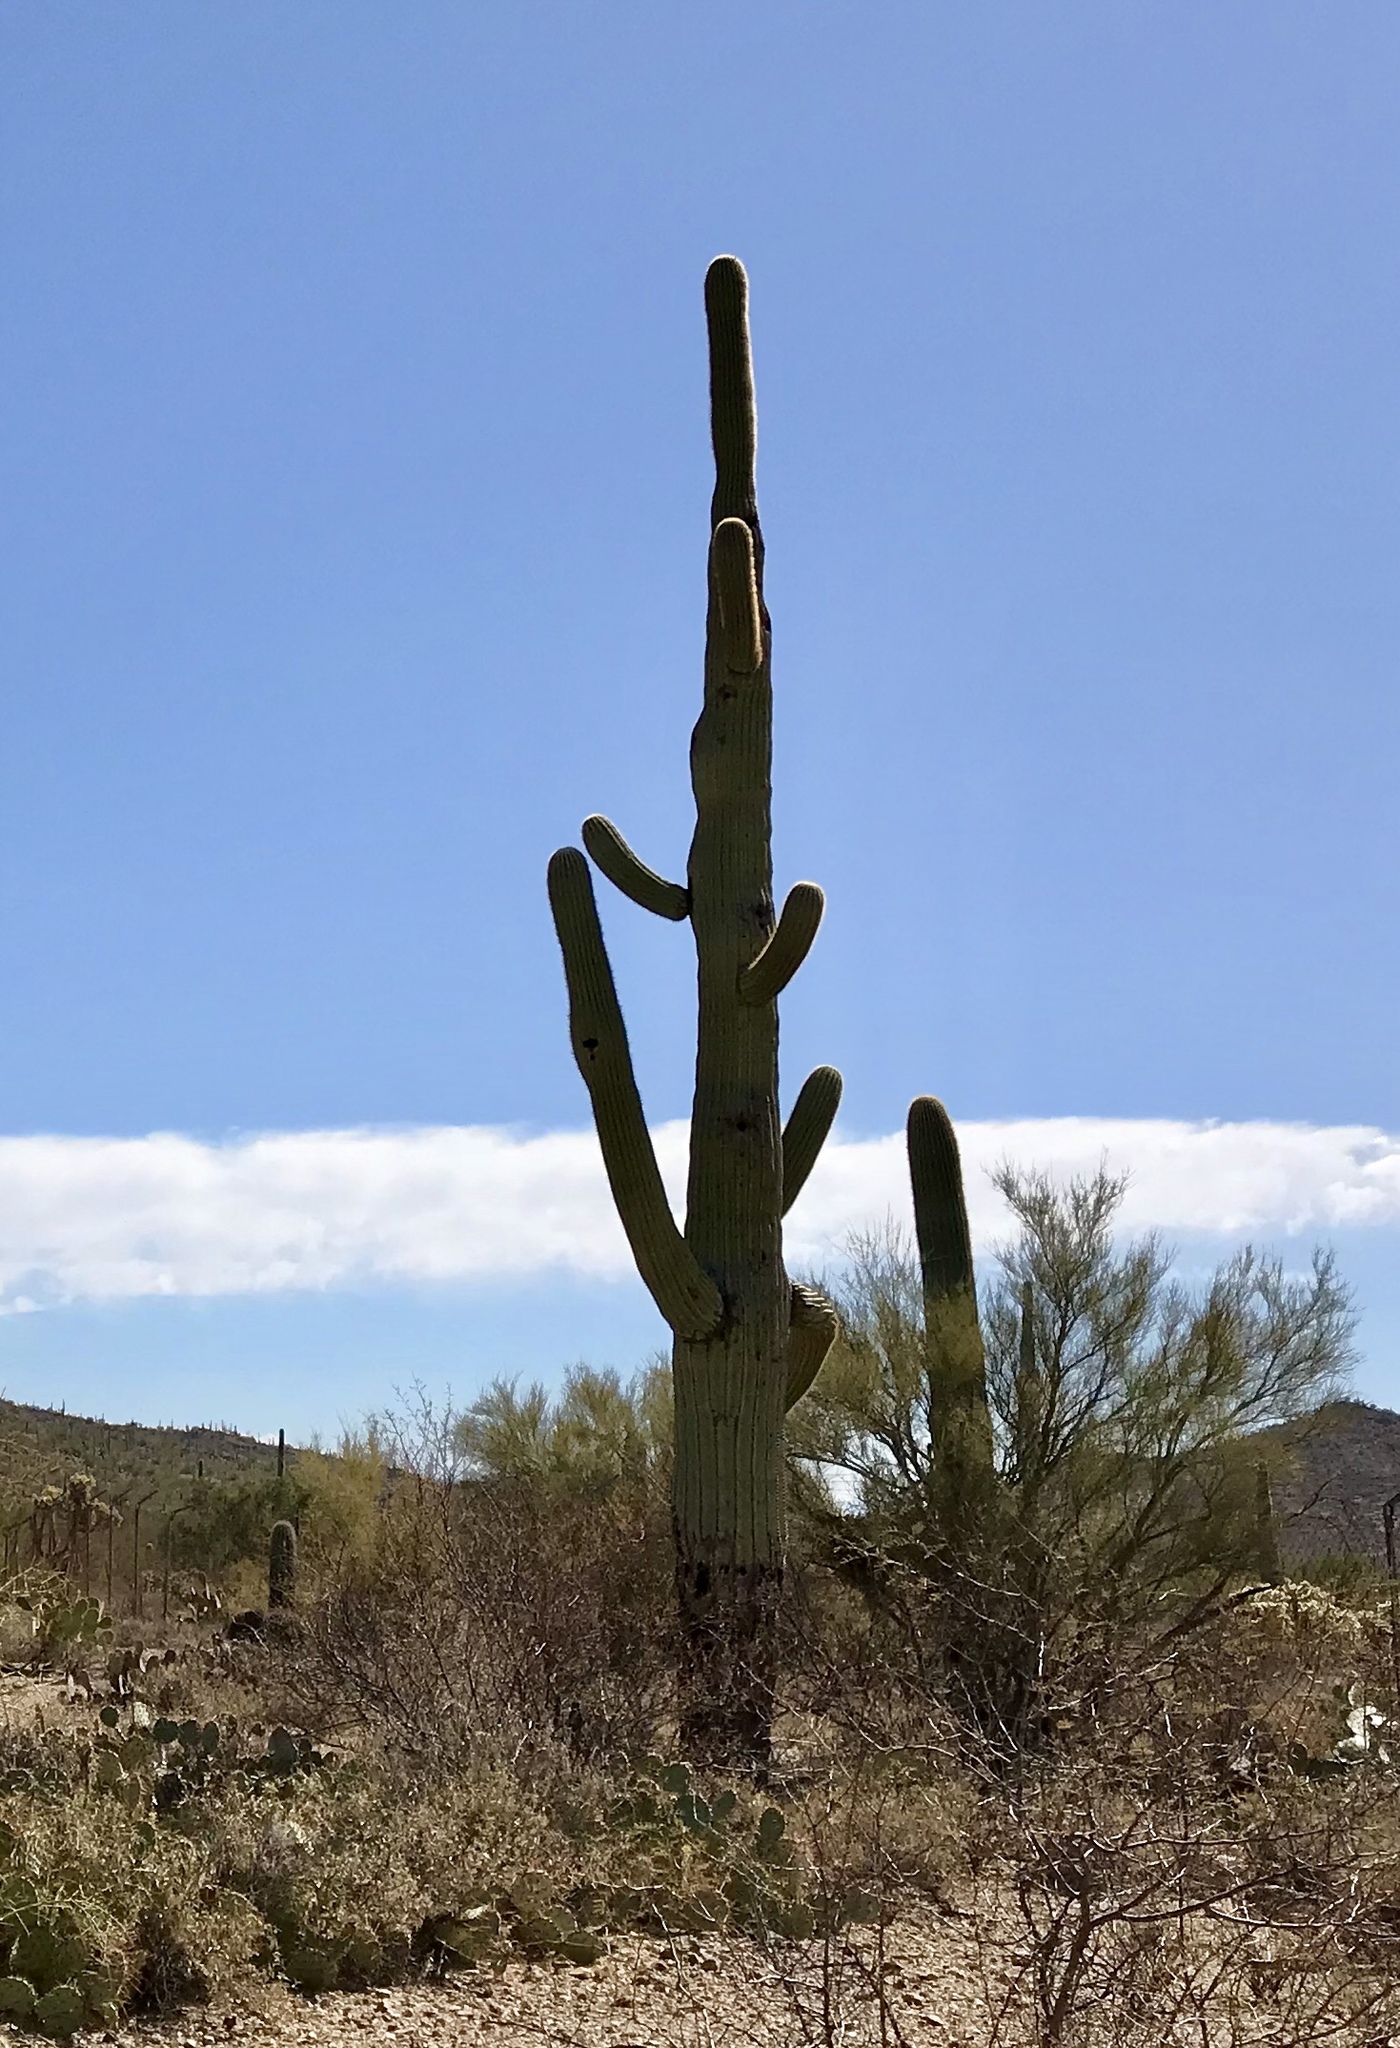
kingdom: Plantae
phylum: Tracheophyta
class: Magnoliopsida
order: Caryophyllales
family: Cactaceae
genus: Carnegiea
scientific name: Carnegiea gigantea
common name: Saguaro
